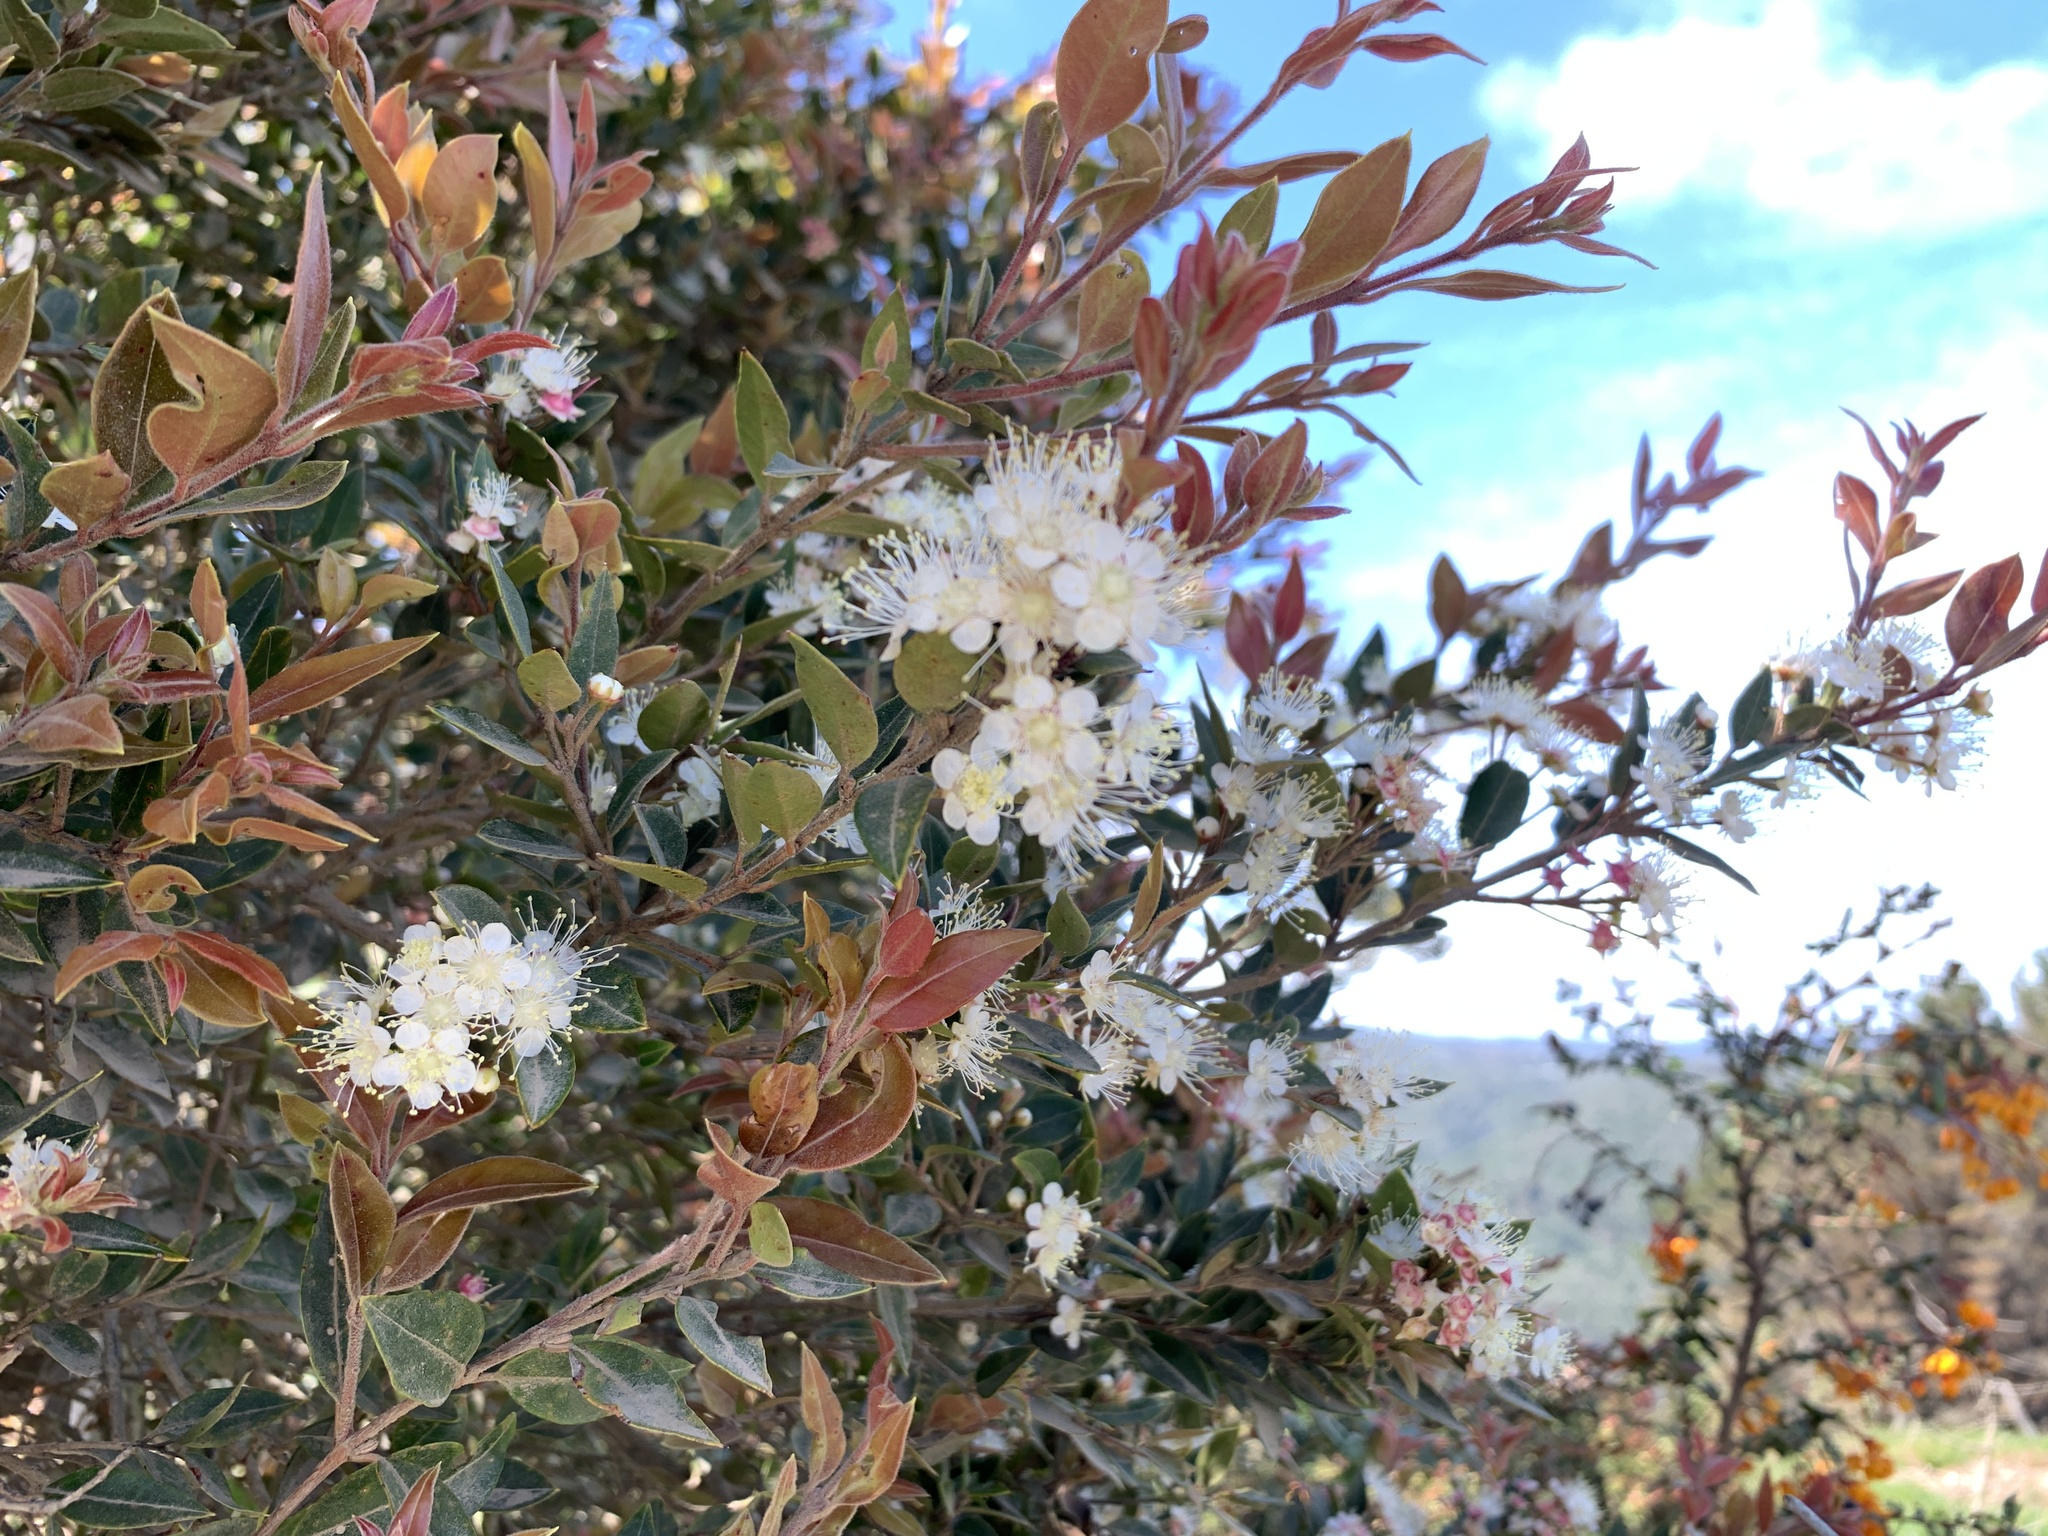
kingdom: Plantae
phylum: Tracheophyta
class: Magnoliopsida
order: Myrtales
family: Myrtaceae
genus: Amomyrtus
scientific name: Amomyrtus luma
